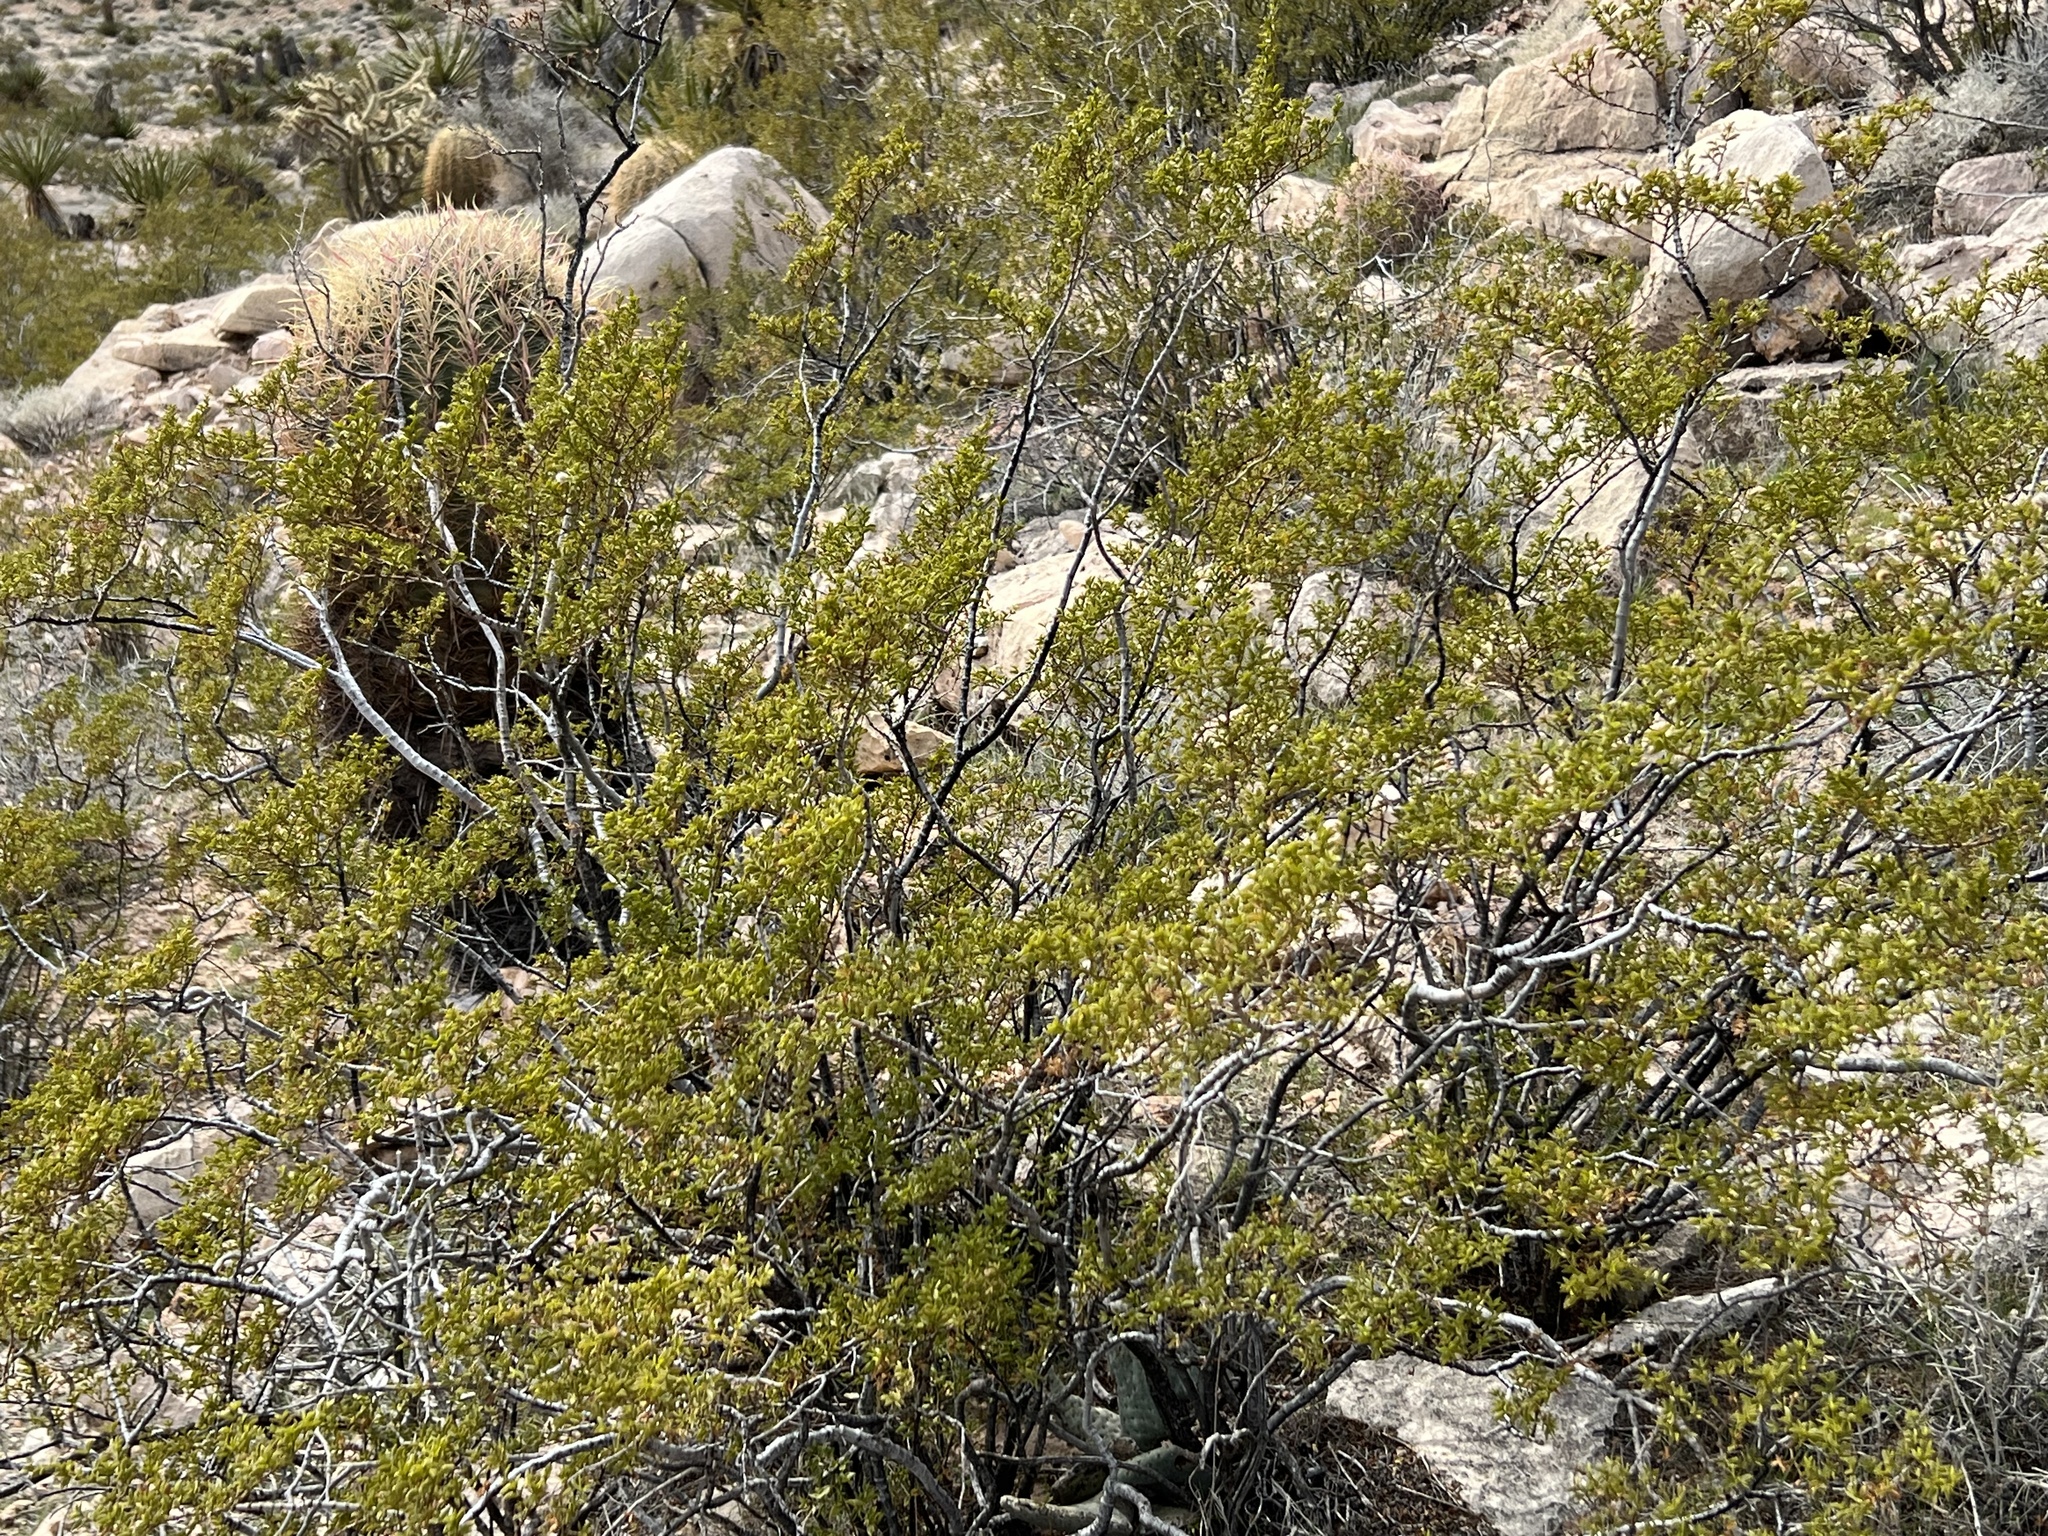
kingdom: Plantae
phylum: Tracheophyta
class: Magnoliopsida
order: Zygophyllales
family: Zygophyllaceae
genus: Larrea
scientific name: Larrea tridentata
